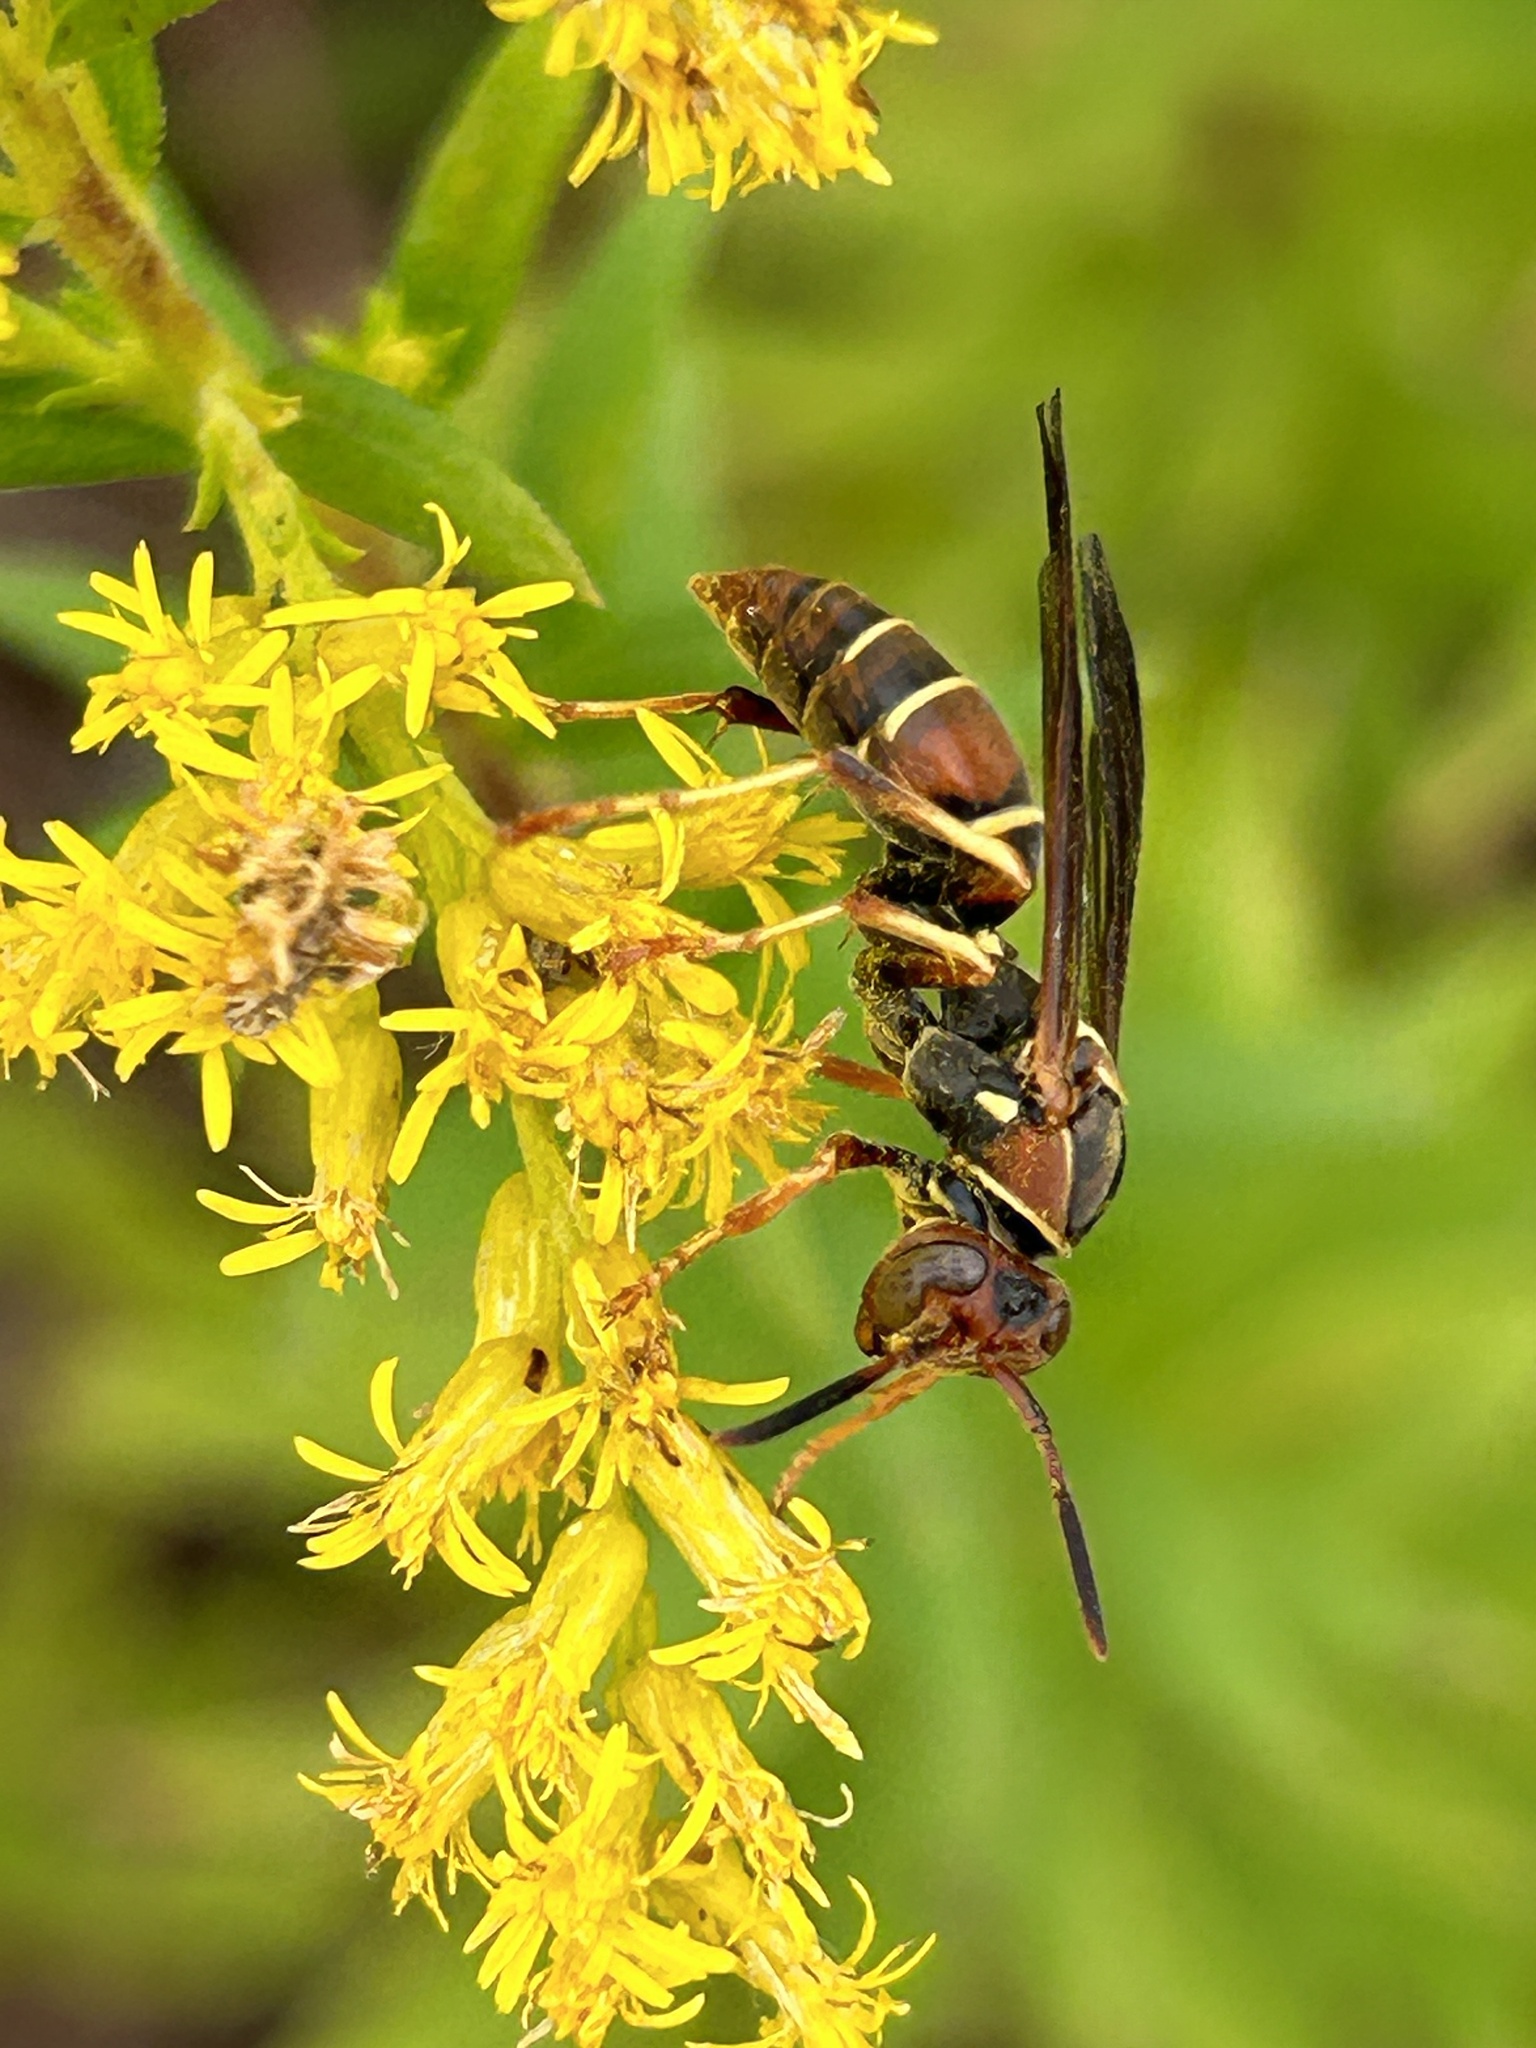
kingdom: Animalia
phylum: Arthropoda
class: Insecta
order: Hymenoptera
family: Eumenidae
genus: Polistes
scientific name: Polistes dorsalis
